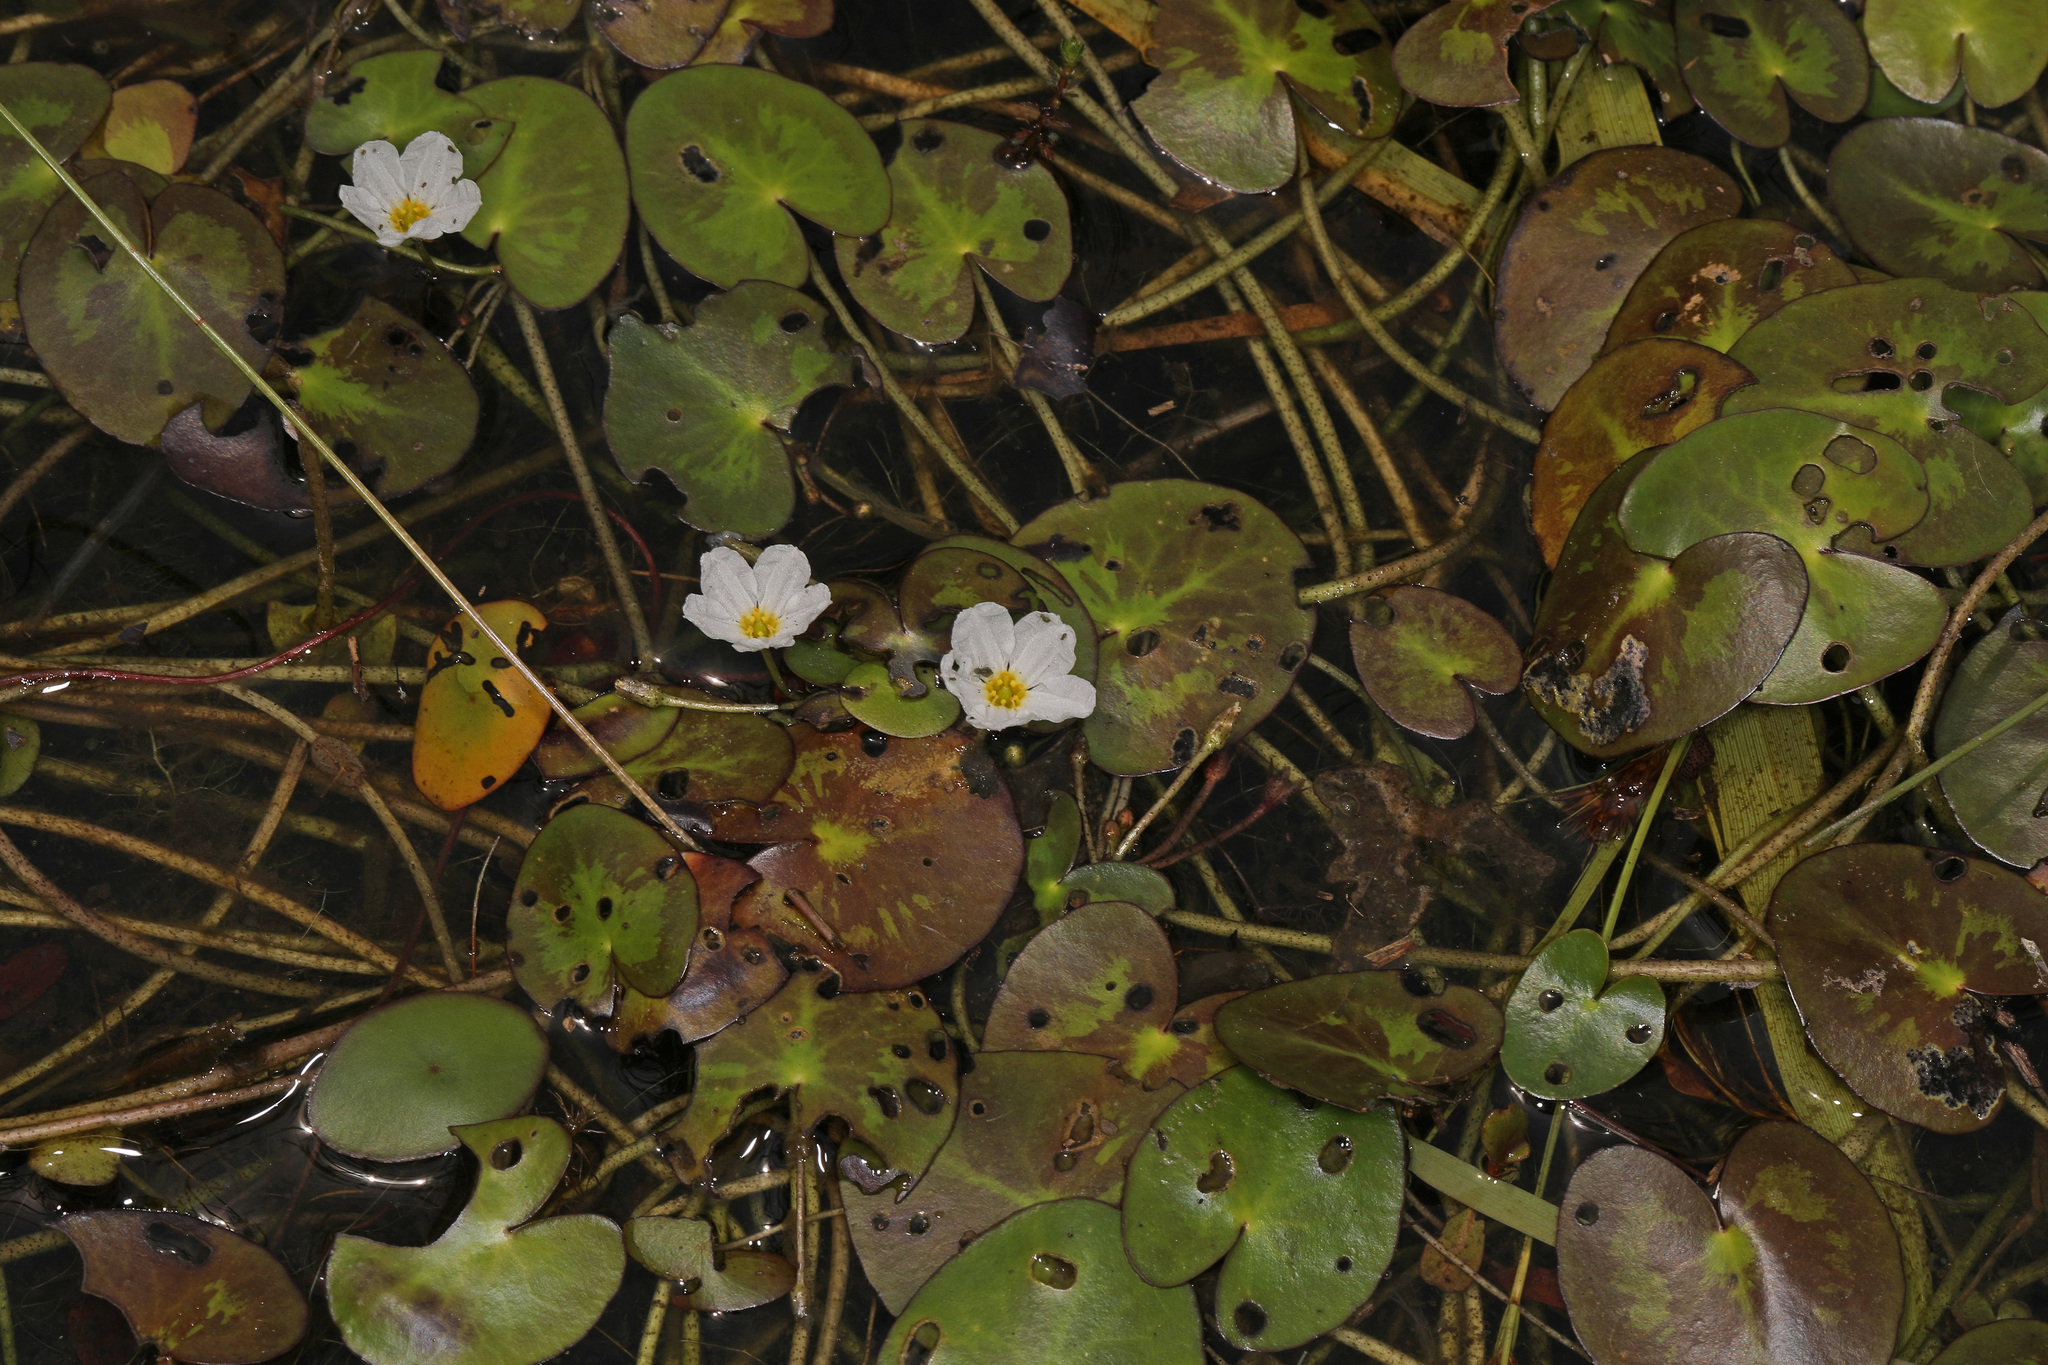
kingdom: Plantae
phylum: Tracheophyta
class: Magnoliopsida
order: Asterales
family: Menyanthaceae
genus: Nymphoides
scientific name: Nymphoides cordata
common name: Eight-angled floatingheart
